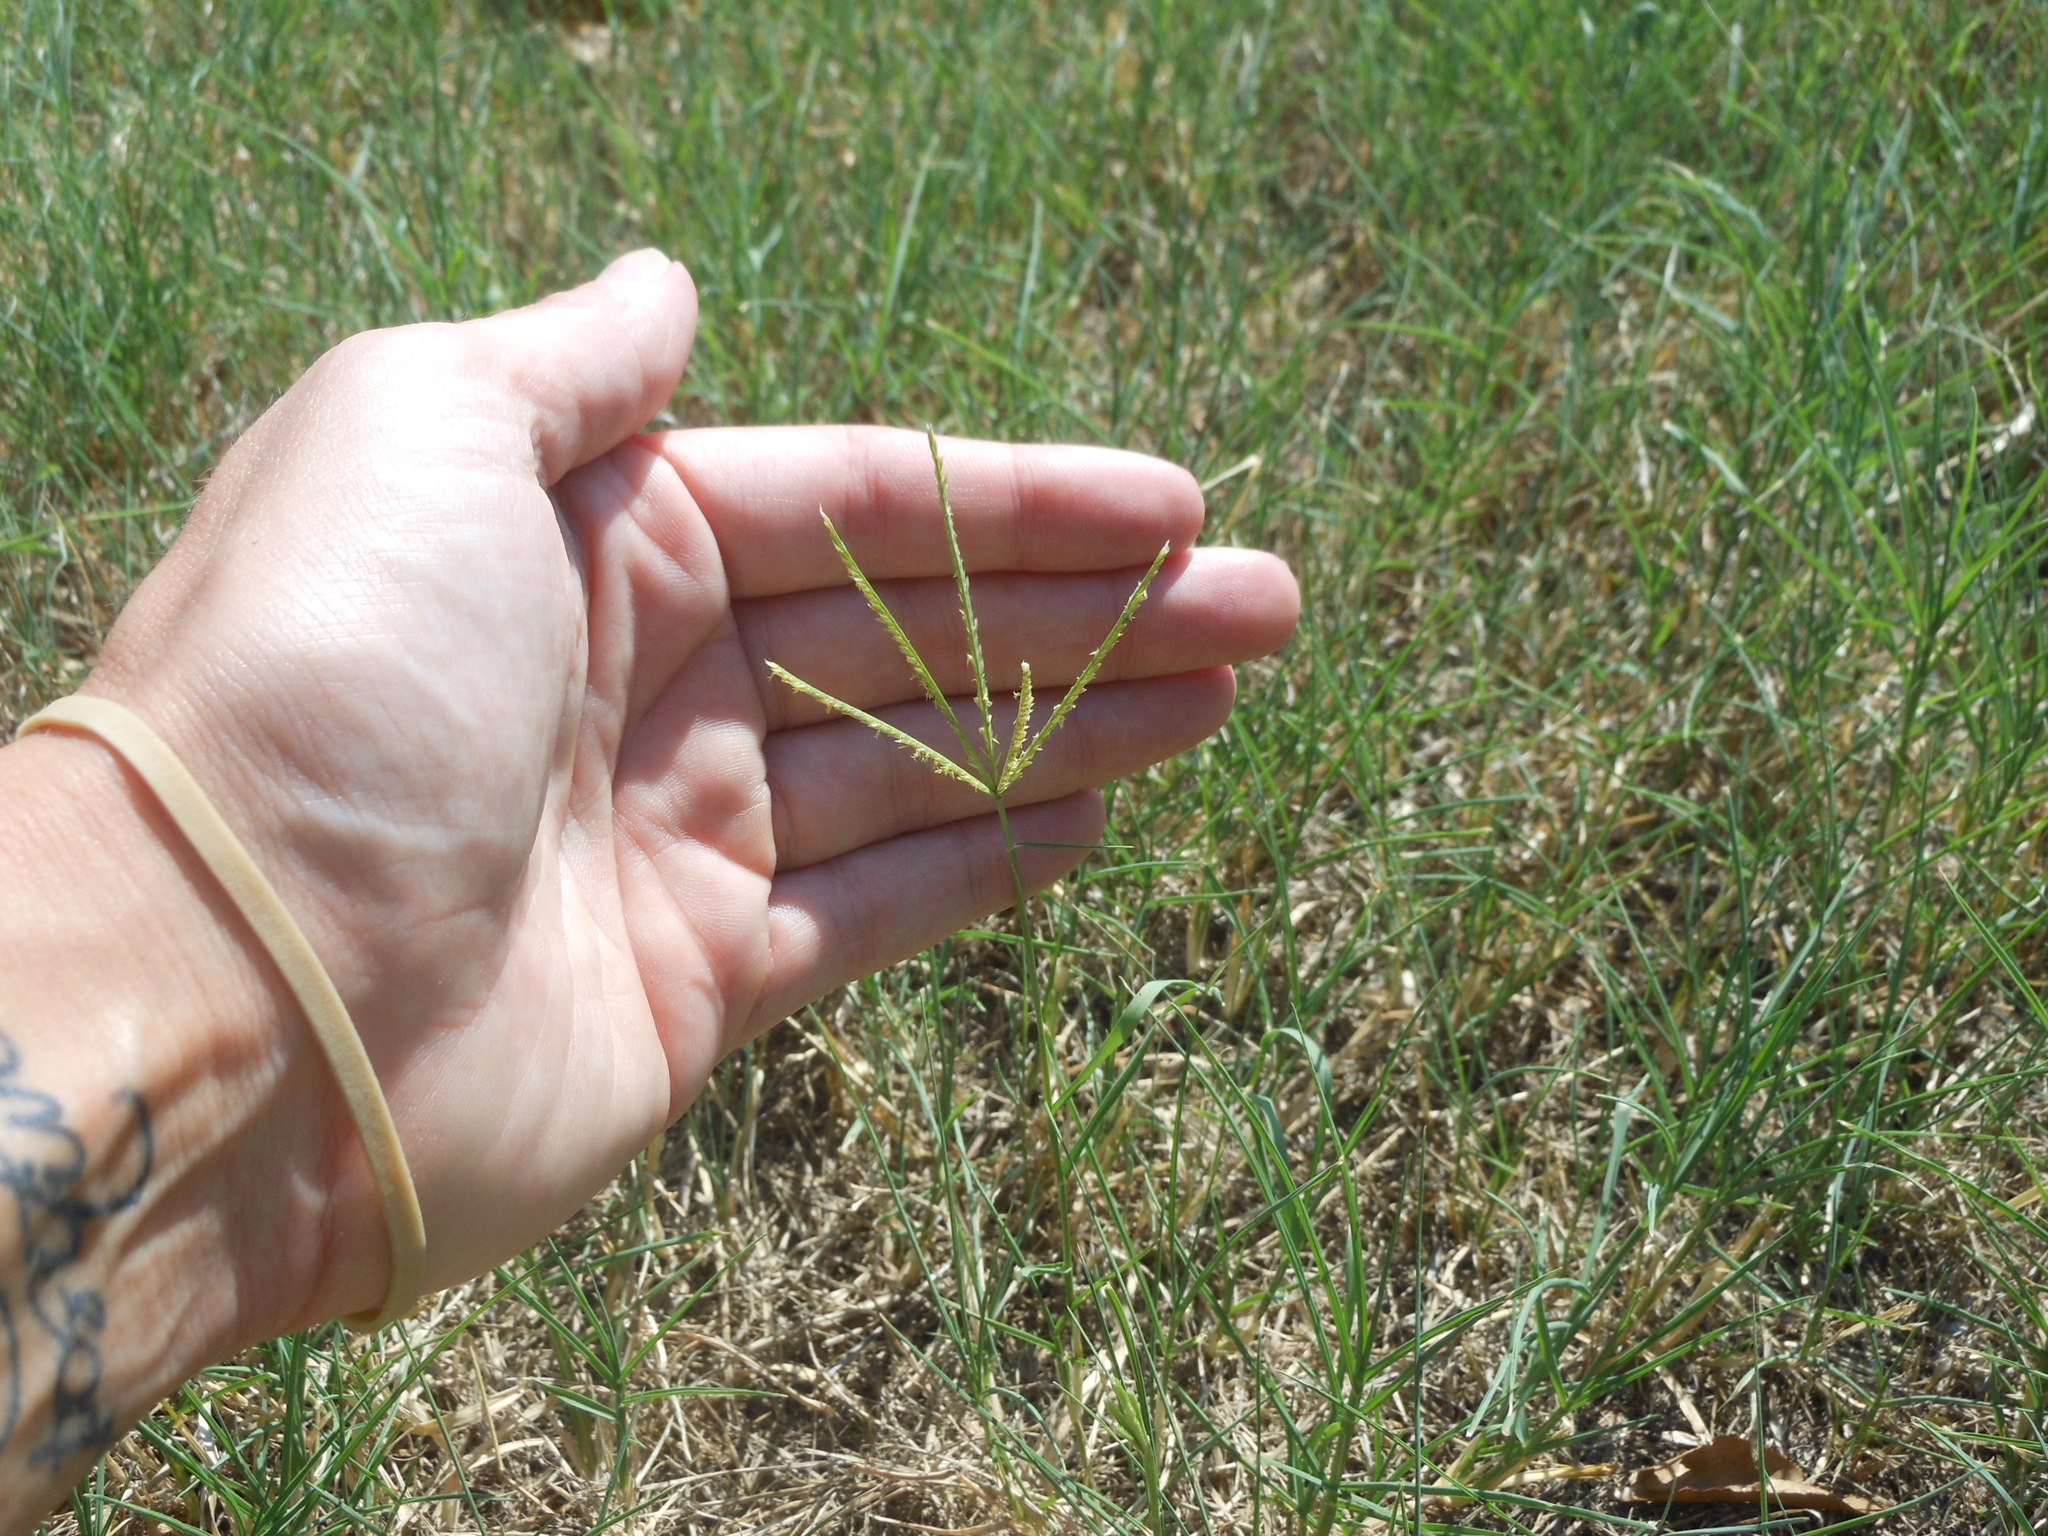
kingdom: Plantae
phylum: Tracheophyta
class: Liliopsida
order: Poales
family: Poaceae
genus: Cynodon
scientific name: Cynodon dactylon
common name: Bermuda grass
